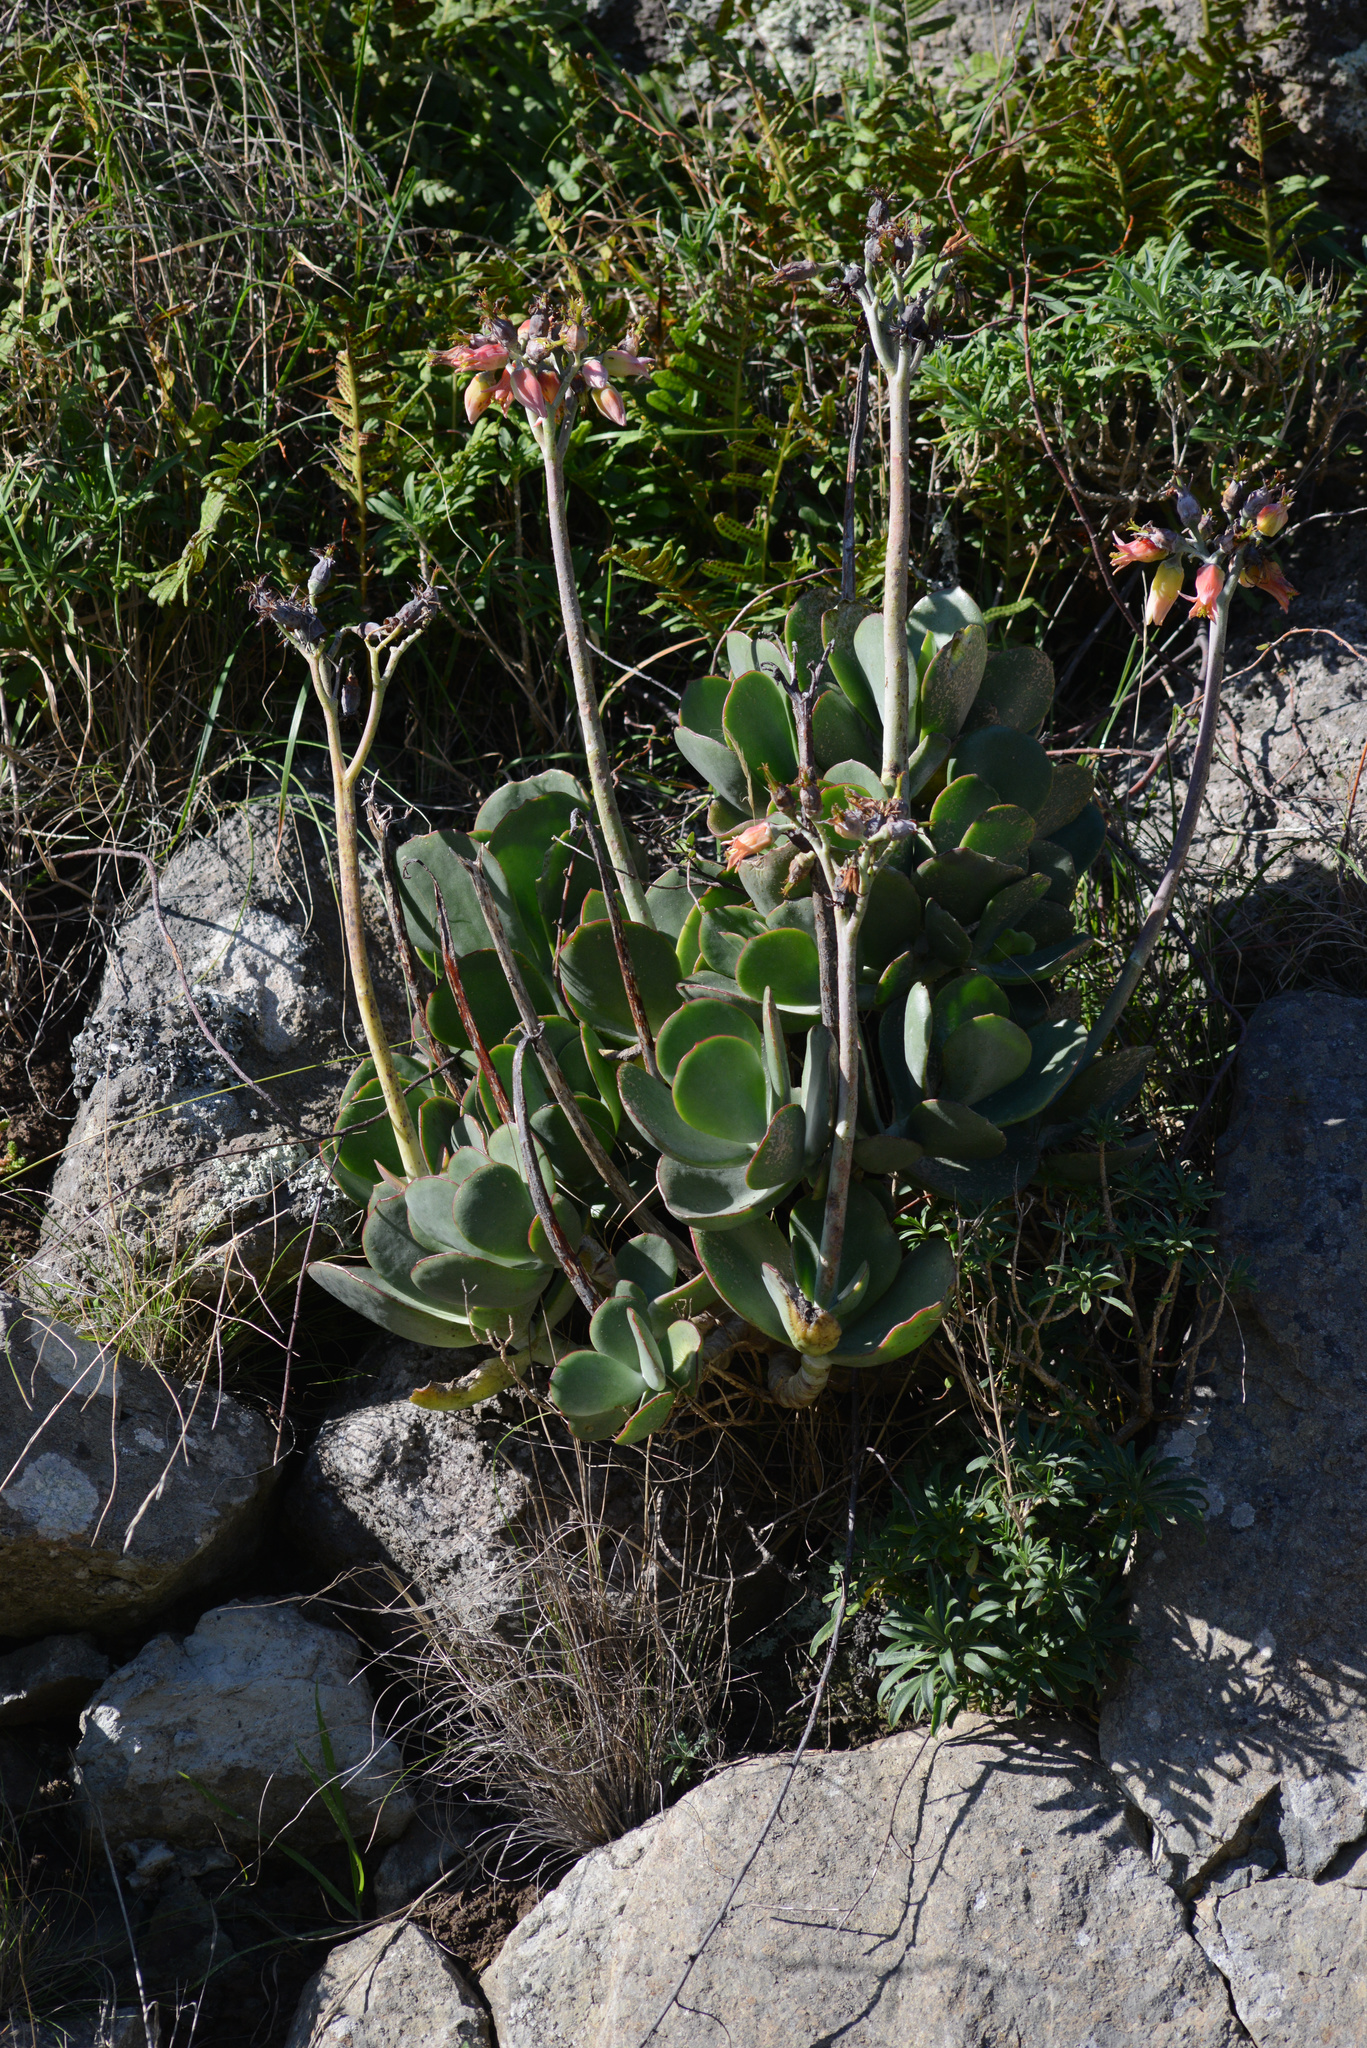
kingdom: Plantae
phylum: Tracheophyta
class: Magnoliopsida
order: Saxifragales
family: Crassulaceae
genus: Cotyledon
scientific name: Cotyledon orbiculata
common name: Pig's ear
